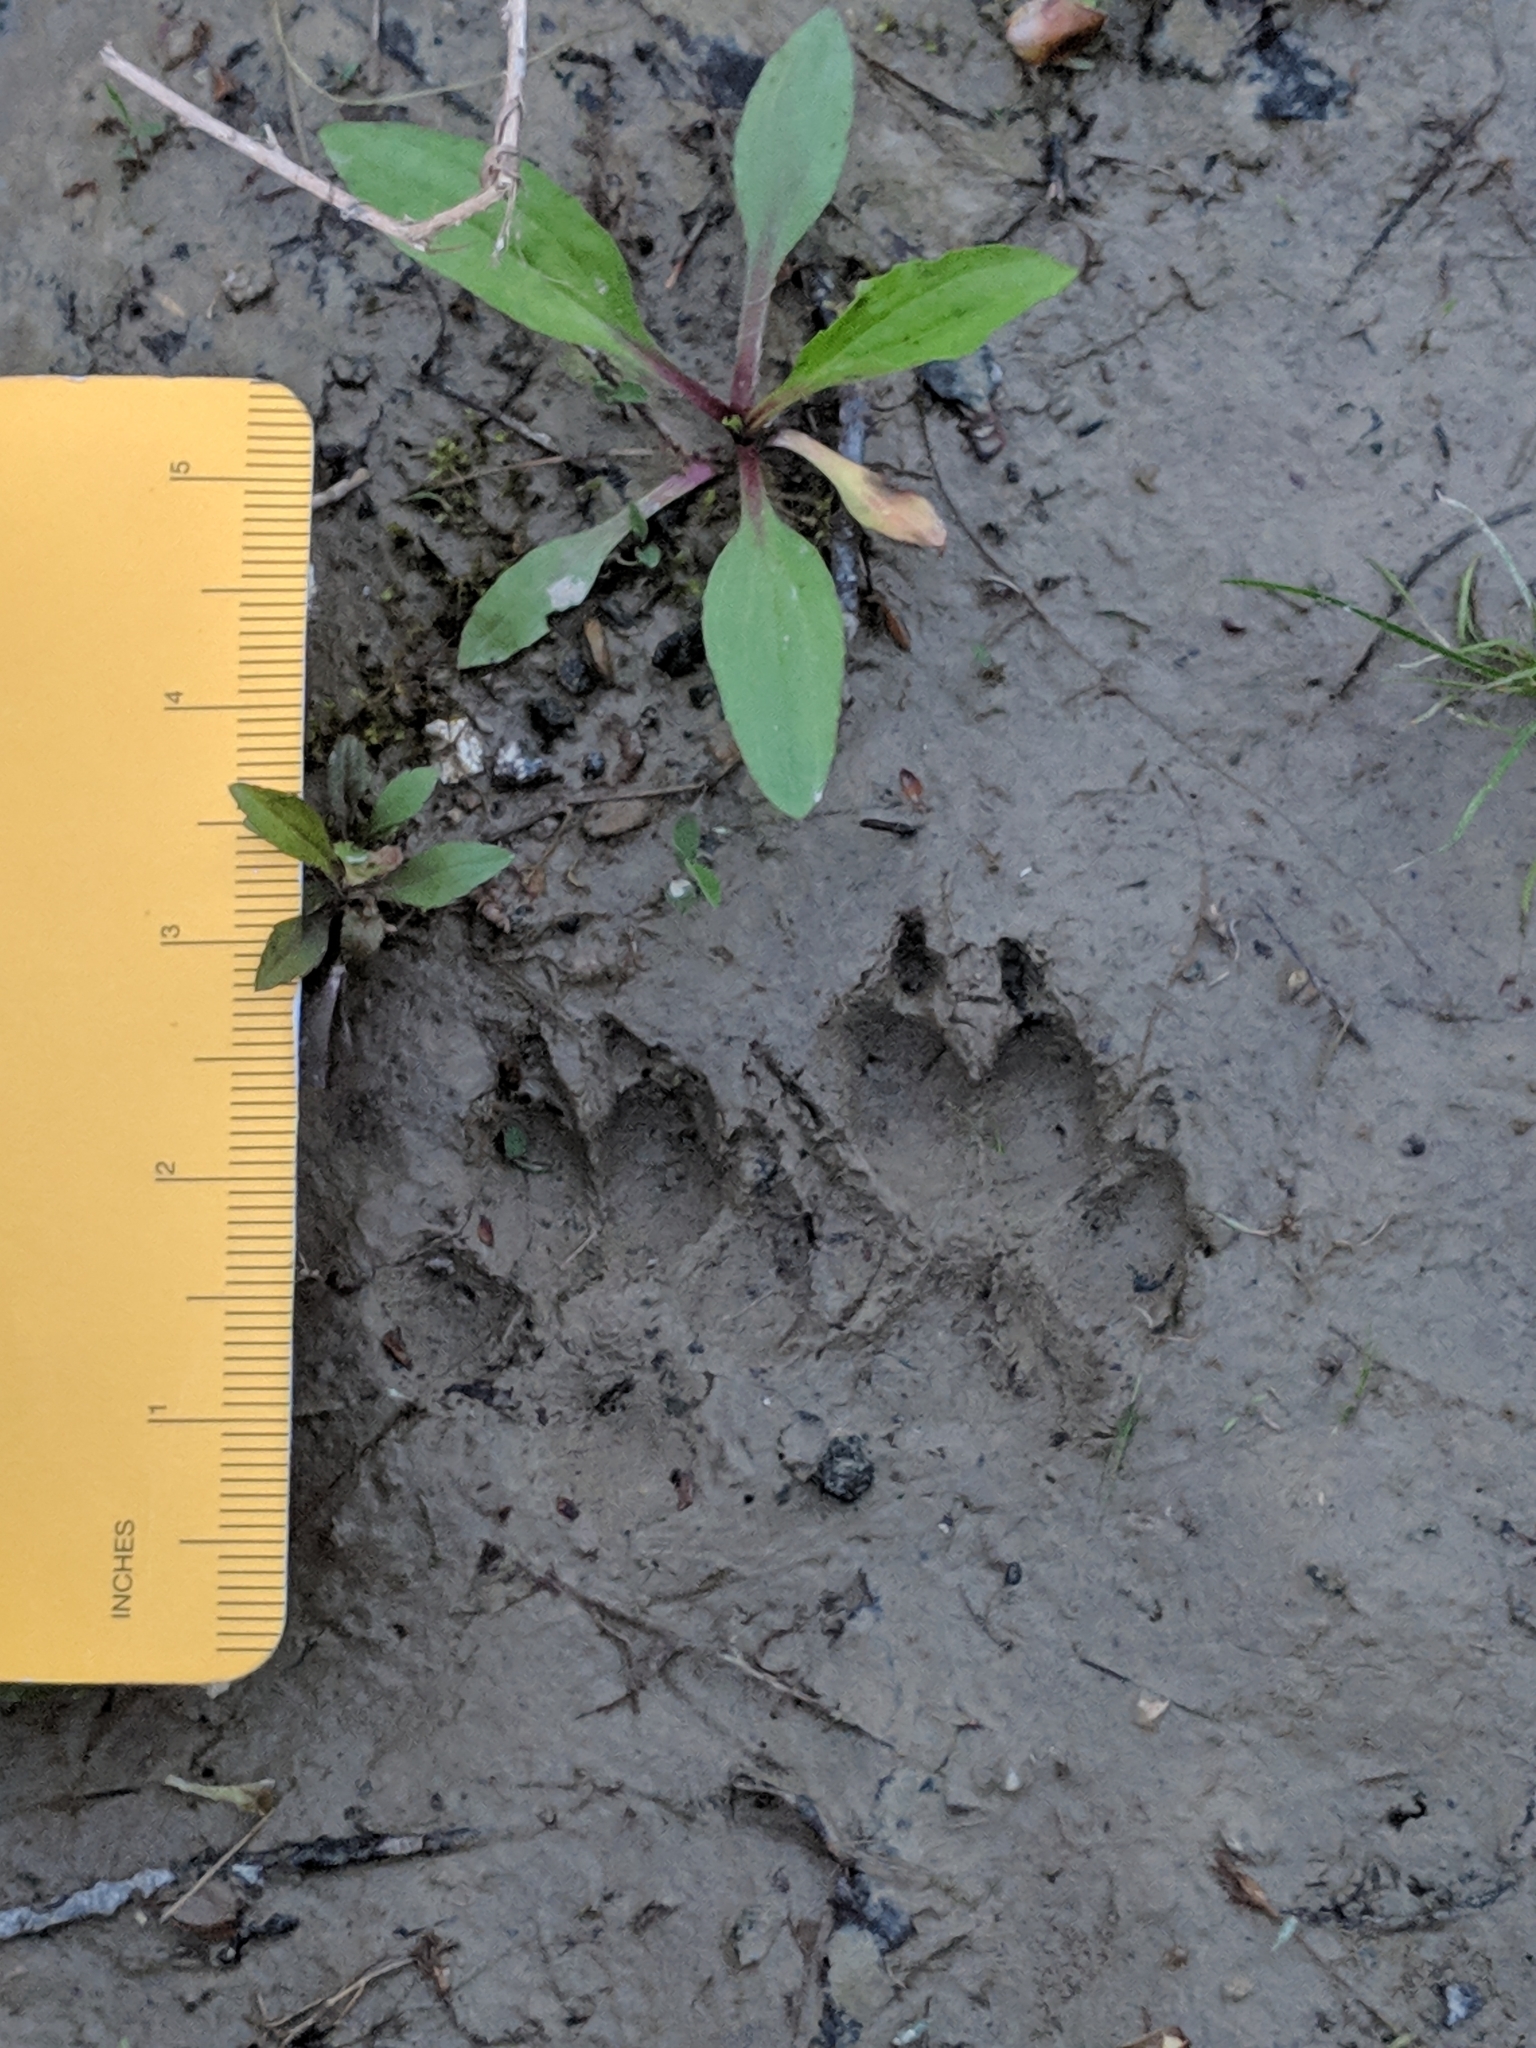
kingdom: Animalia
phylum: Chordata
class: Mammalia
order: Carnivora
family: Canidae
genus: Canis
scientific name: Canis latrans
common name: Coyote
